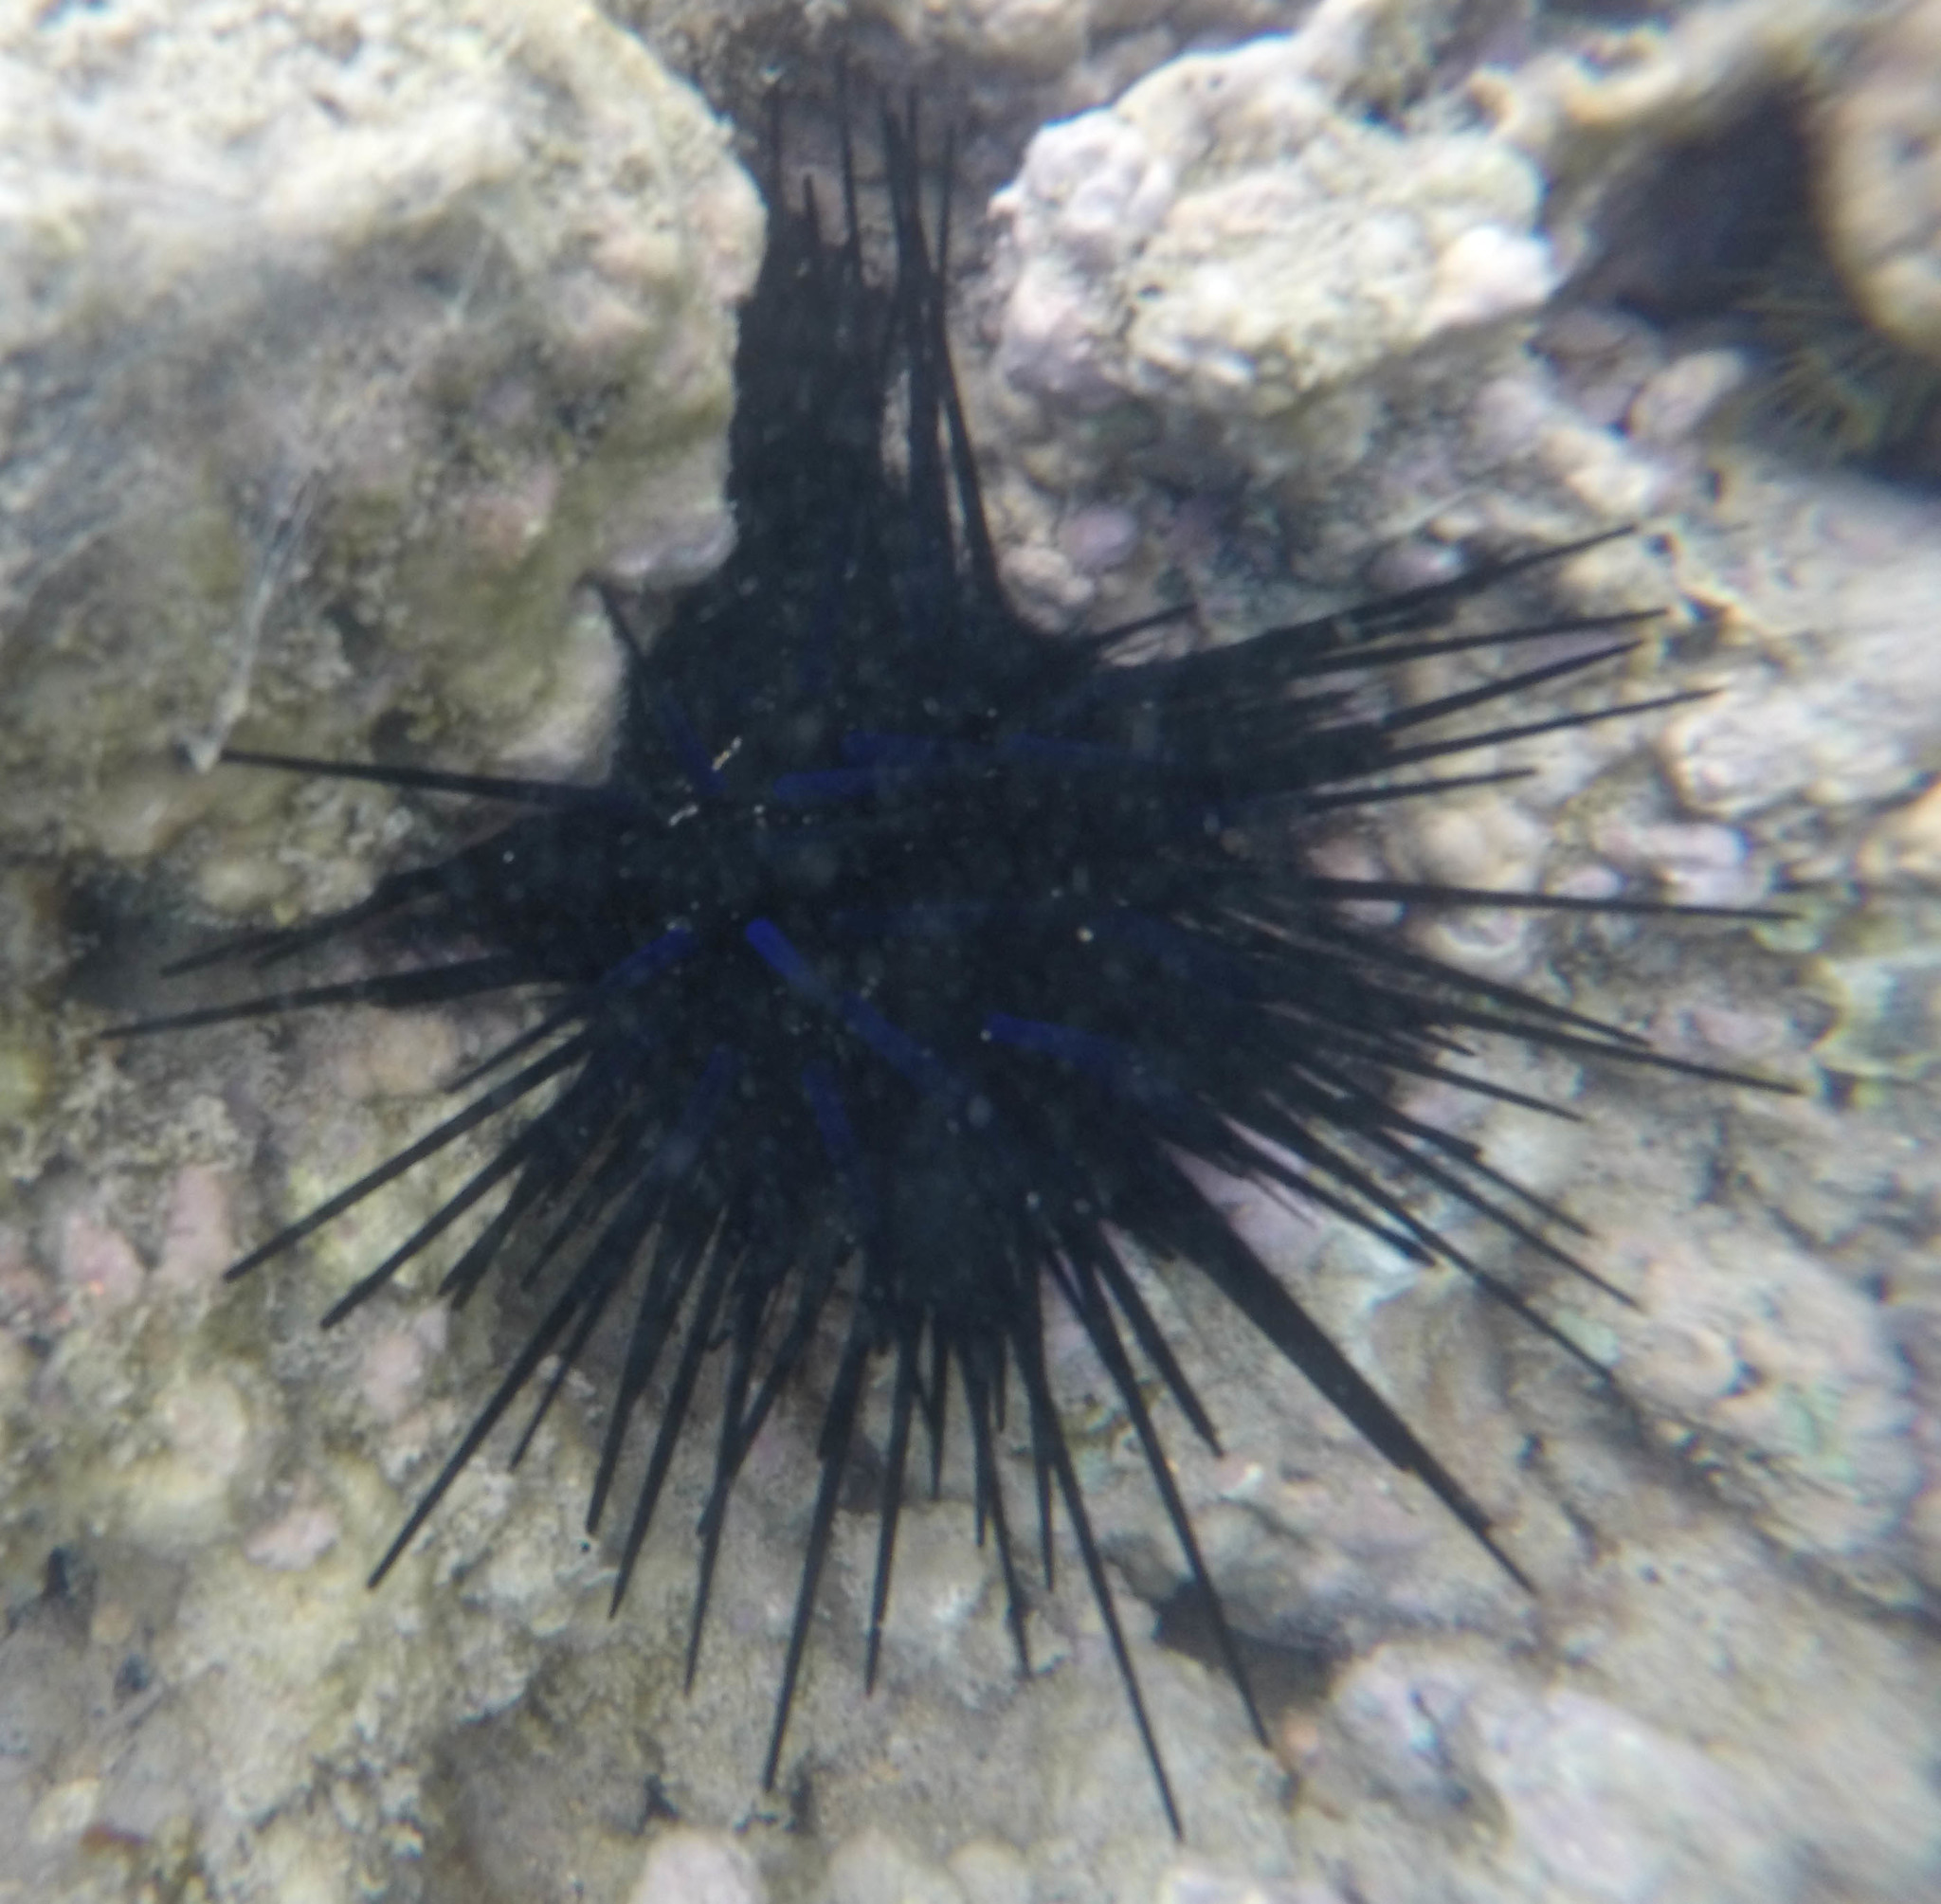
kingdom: Animalia
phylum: Echinodermata
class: Echinoidea
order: Diadematoida
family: Diadematidae
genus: Diadema
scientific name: Diadema paucispinum
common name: Nadel-seeigel
